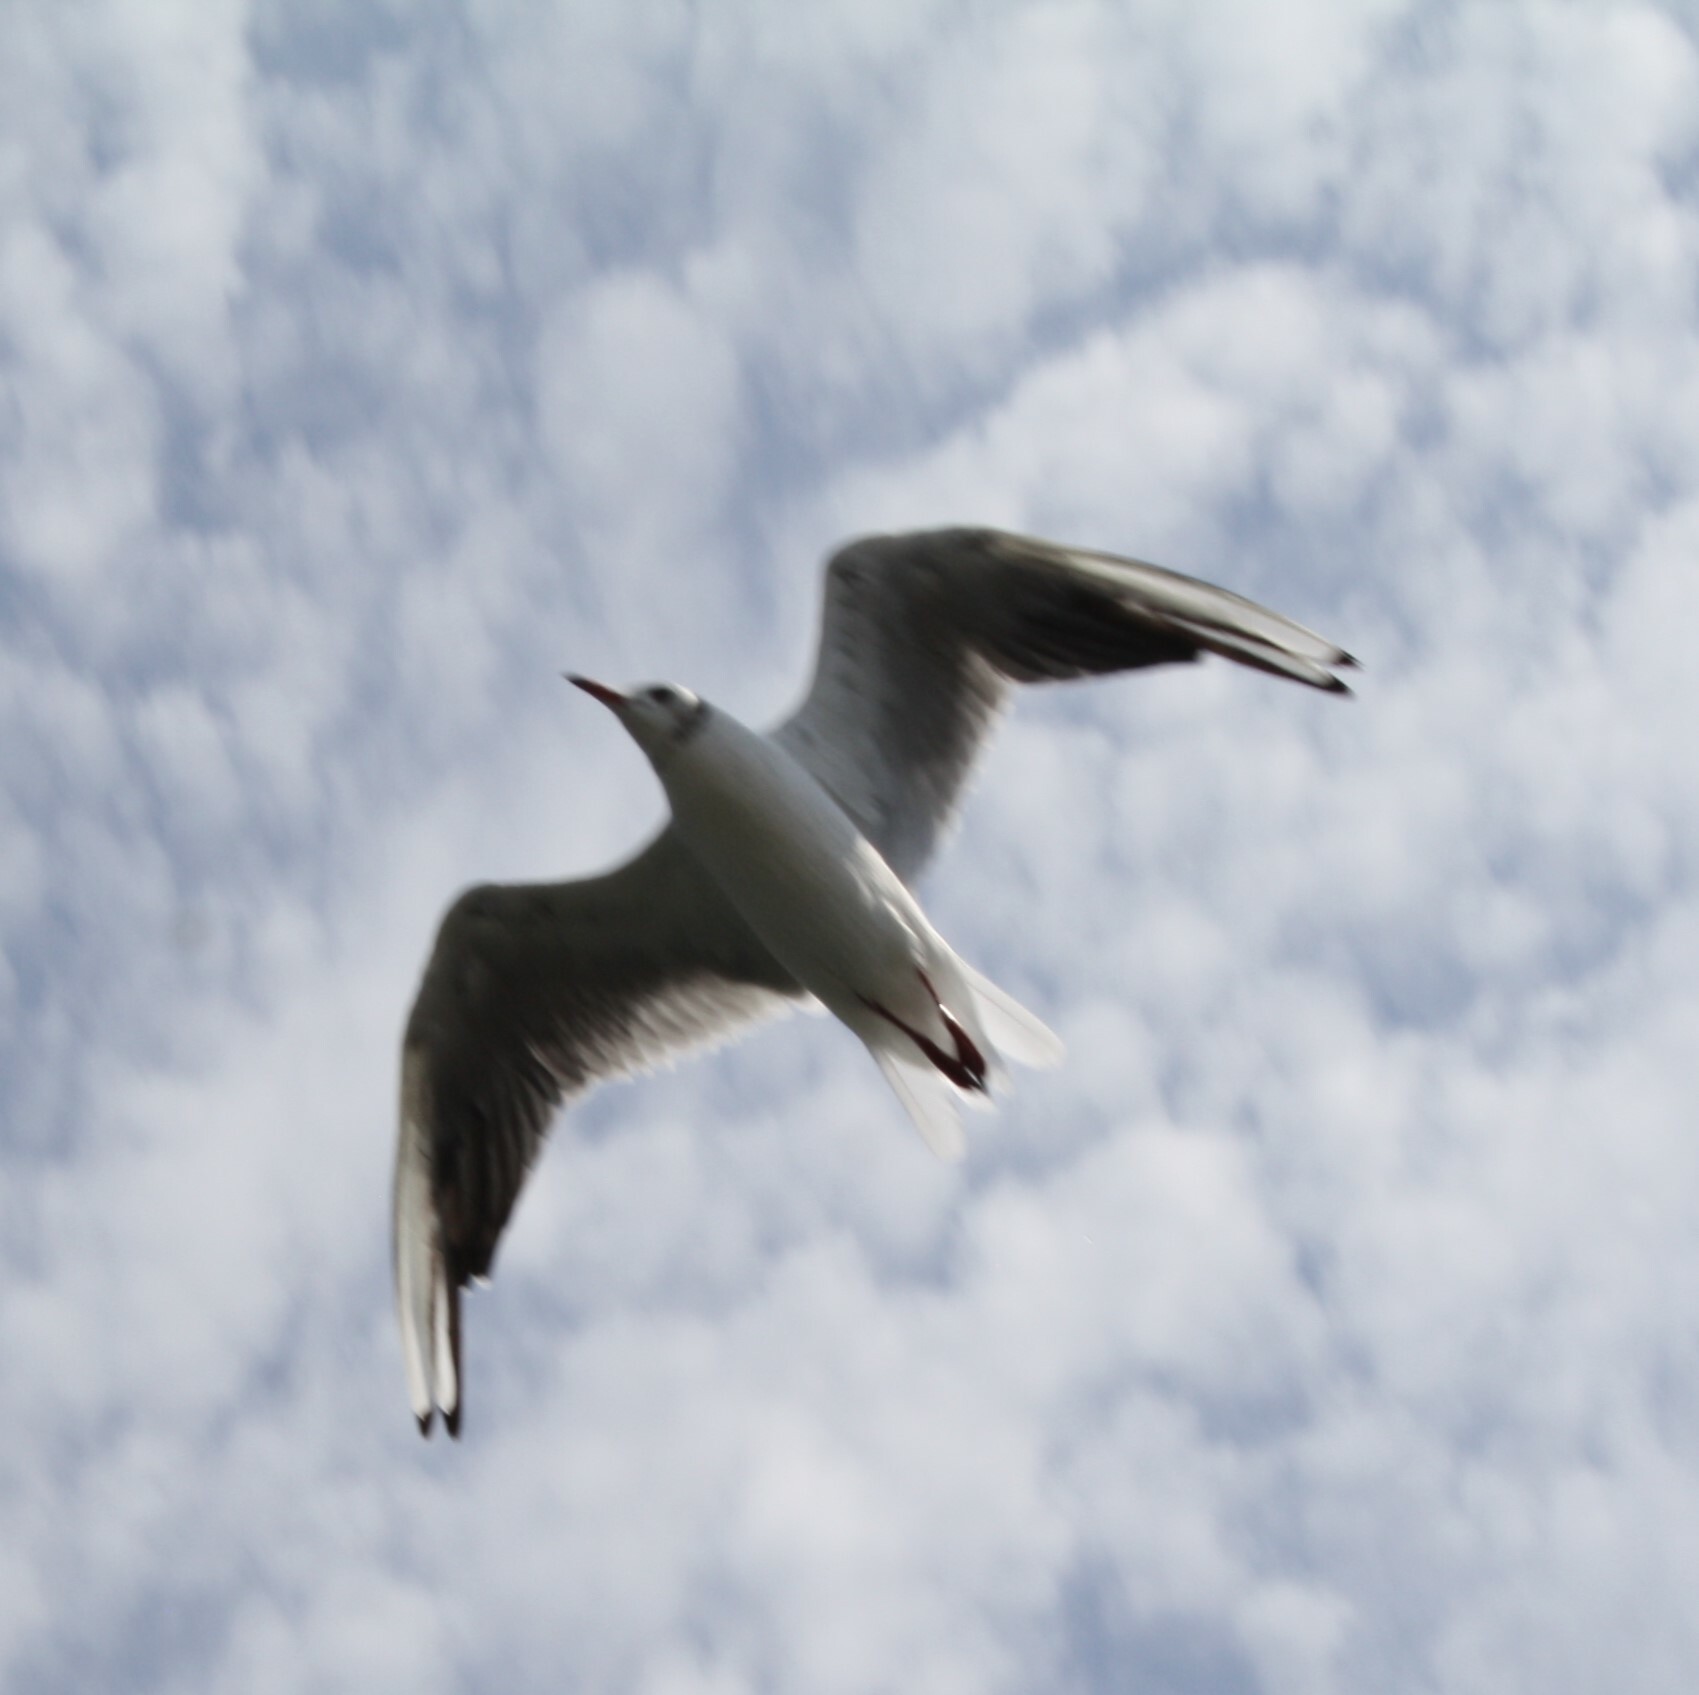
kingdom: Animalia
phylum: Chordata
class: Aves
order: Charadriiformes
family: Laridae
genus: Chroicocephalus
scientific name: Chroicocephalus ridibundus
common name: Black-headed gull
